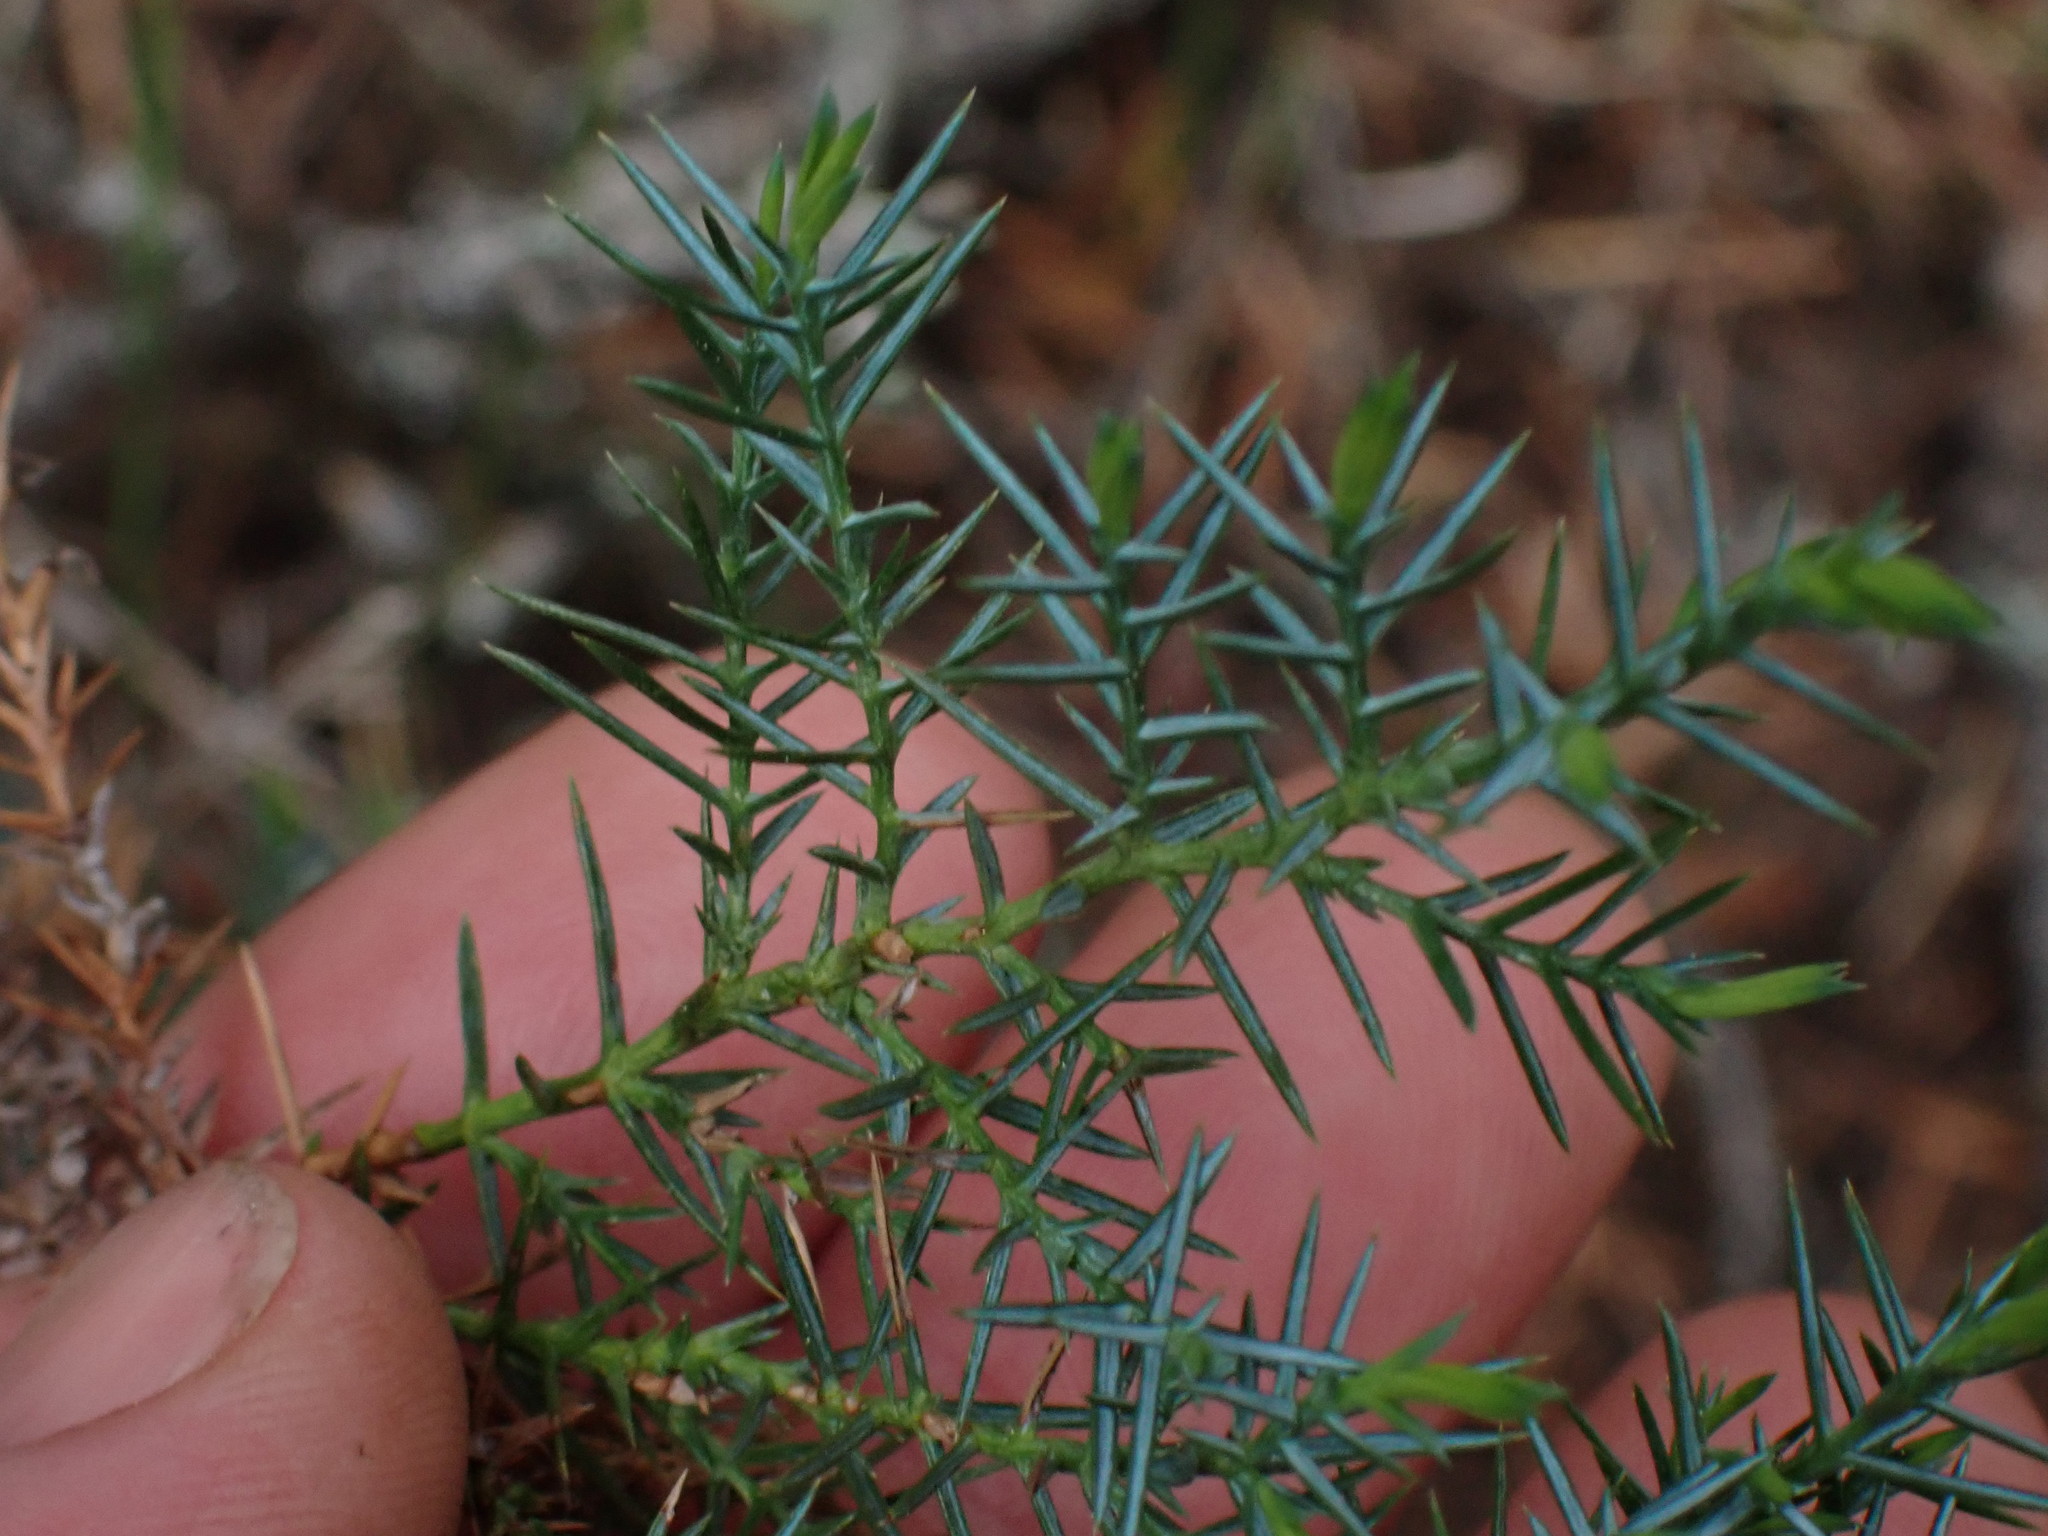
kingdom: Plantae
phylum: Tracheophyta
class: Pinopsida
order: Pinales
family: Cupressaceae
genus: Juniperus
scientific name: Juniperus communis
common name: Common juniper
